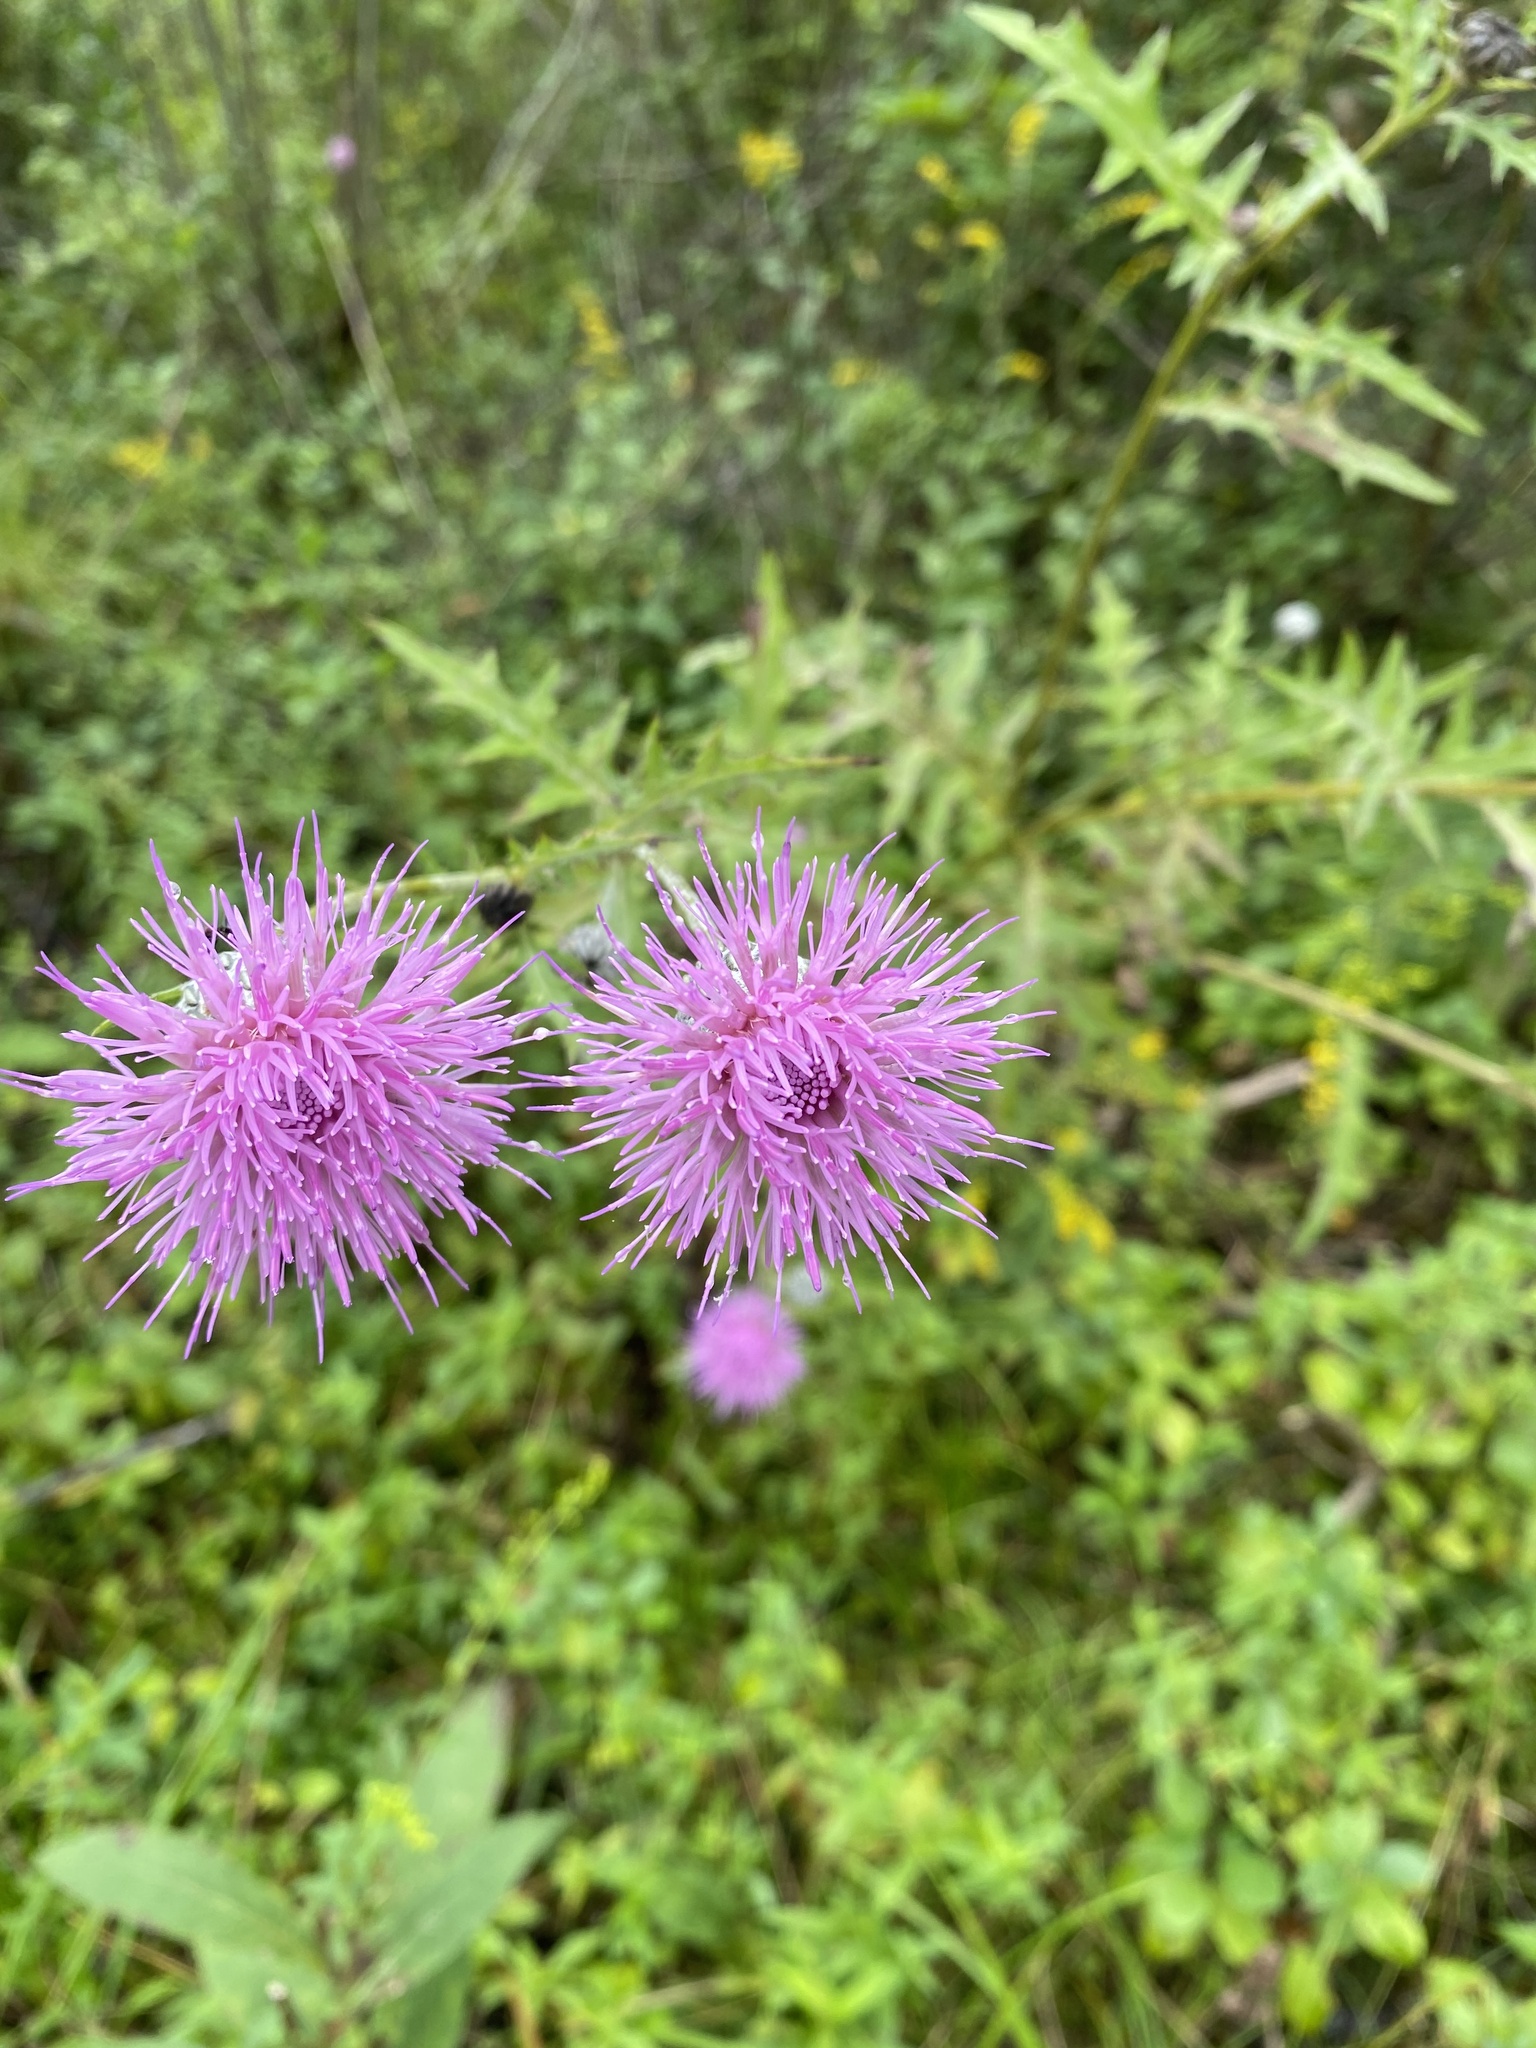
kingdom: Plantae
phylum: Tracheophyta
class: Magnoliopsida
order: Asterales
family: Asteraceae
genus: Cirsium
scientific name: Cirsium muticum
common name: Dunce-nettle
